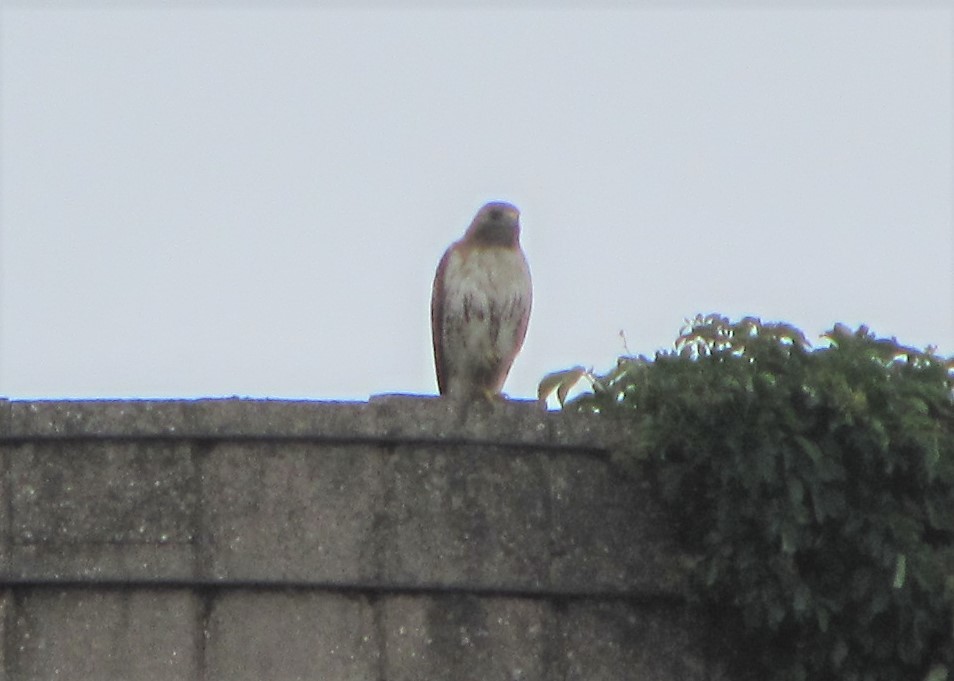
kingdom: Animalia
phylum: Chordata
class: Aves
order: Accipitriformes
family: Accipitridae
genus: Buteo
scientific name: Buteo jamaicensis
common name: Red-tailed hawk
